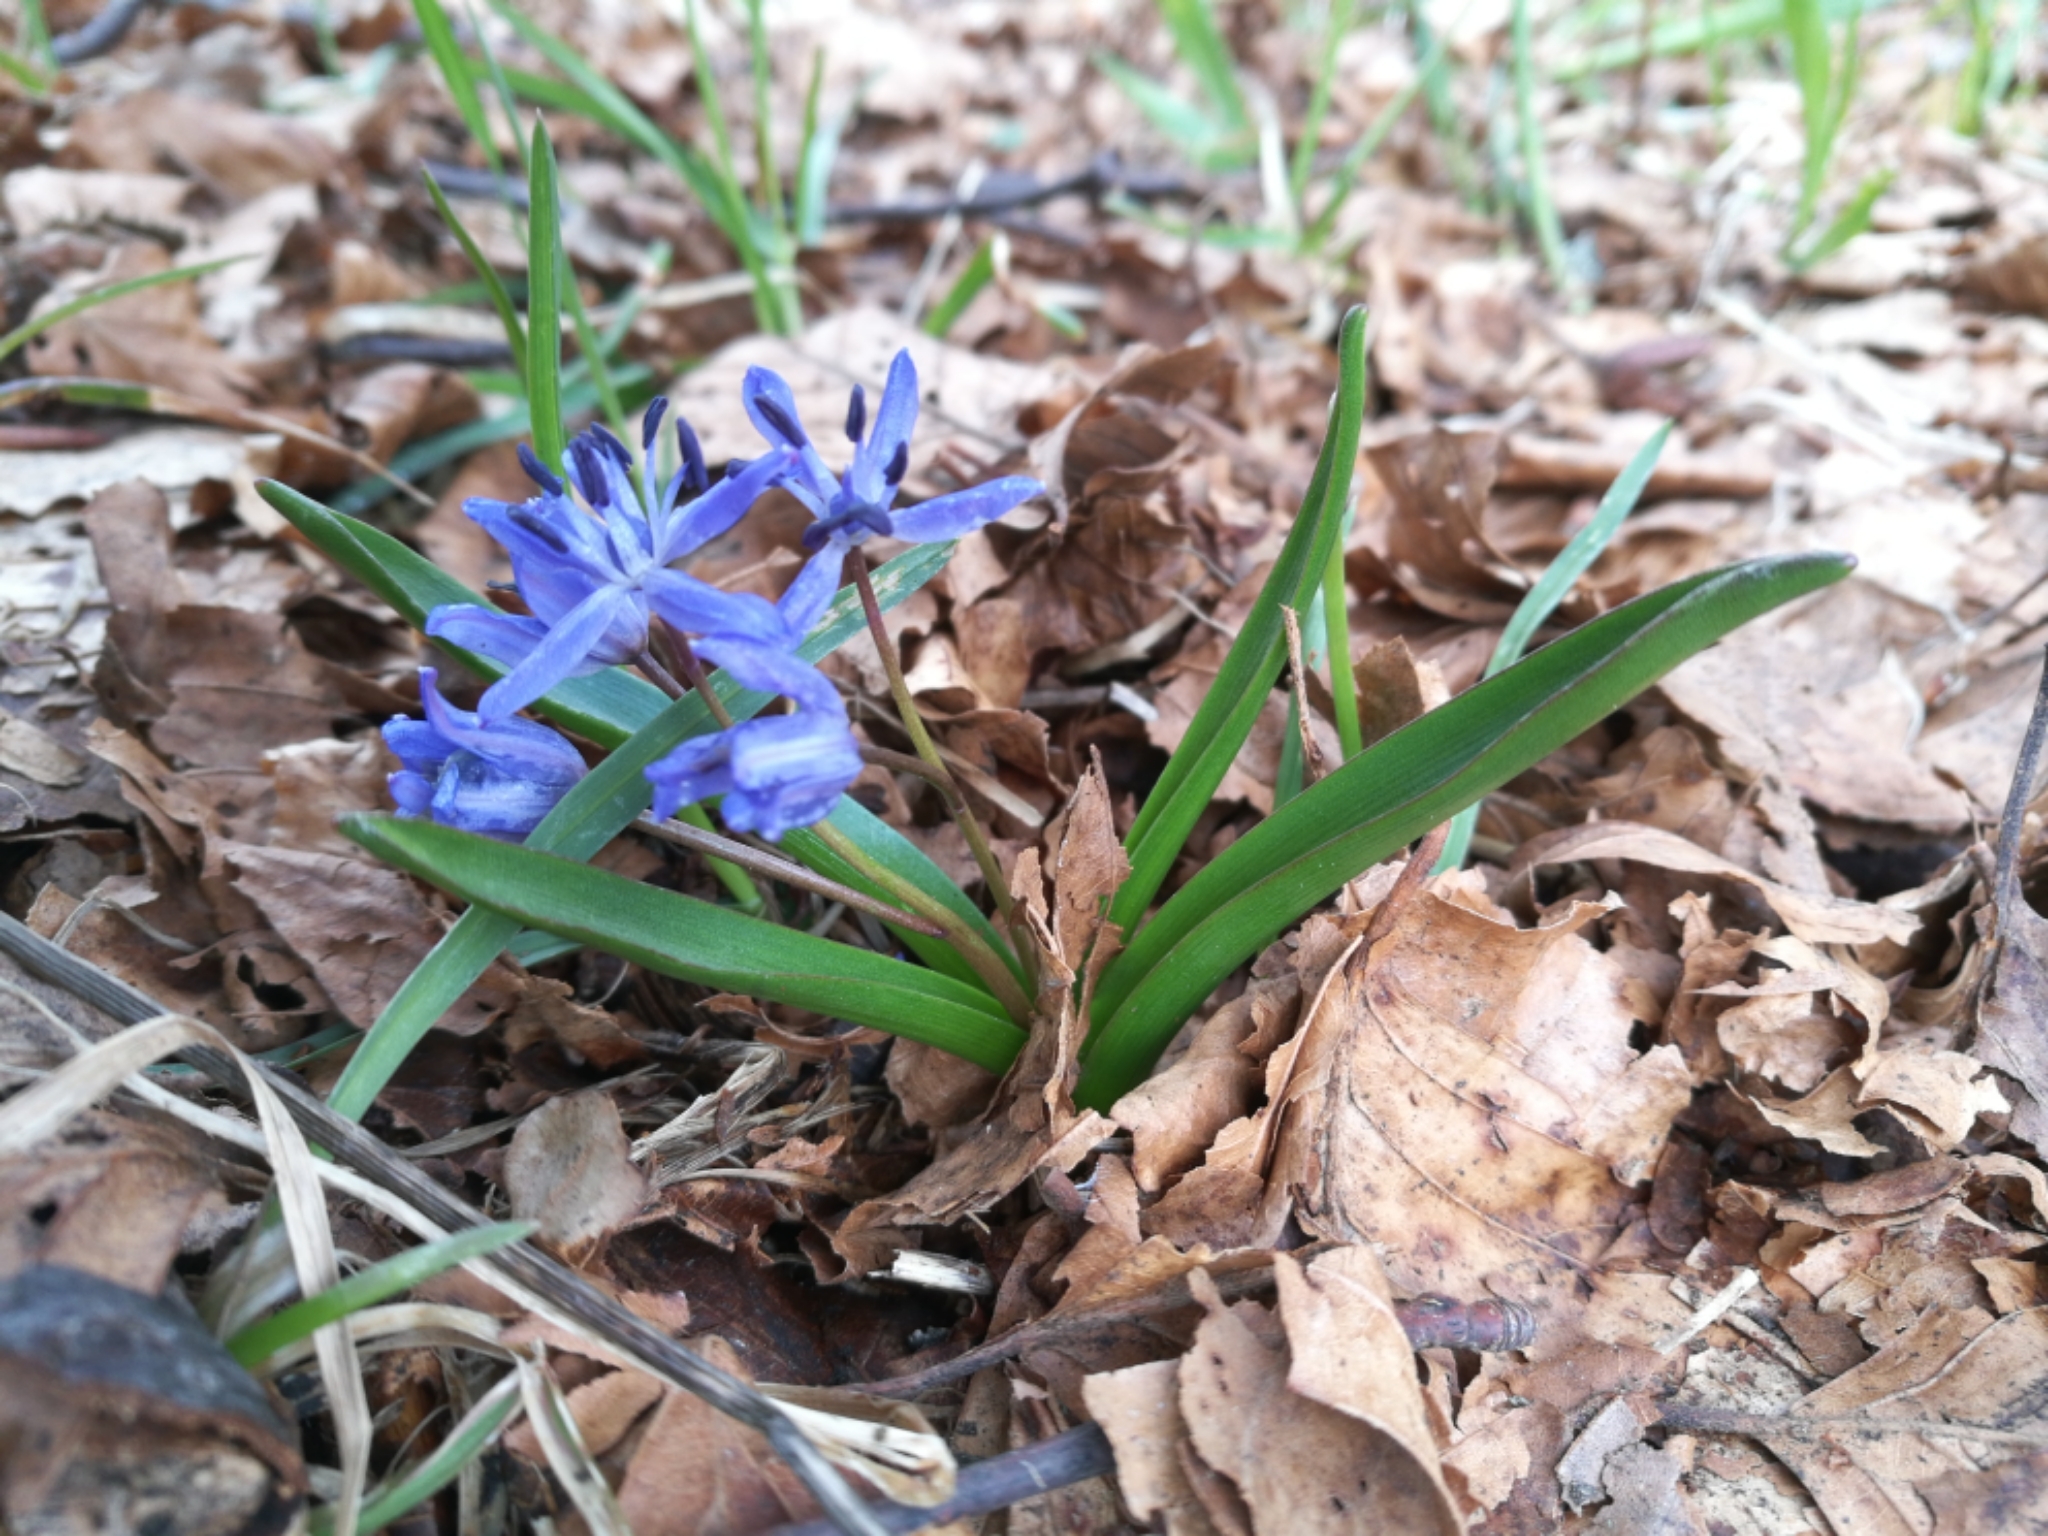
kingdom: Plantae
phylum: Tracheophyta
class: Liliopsida
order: Asparagales
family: Asparagaceae
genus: Scilla
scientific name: Scilla bifolia
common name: Alpine squill
